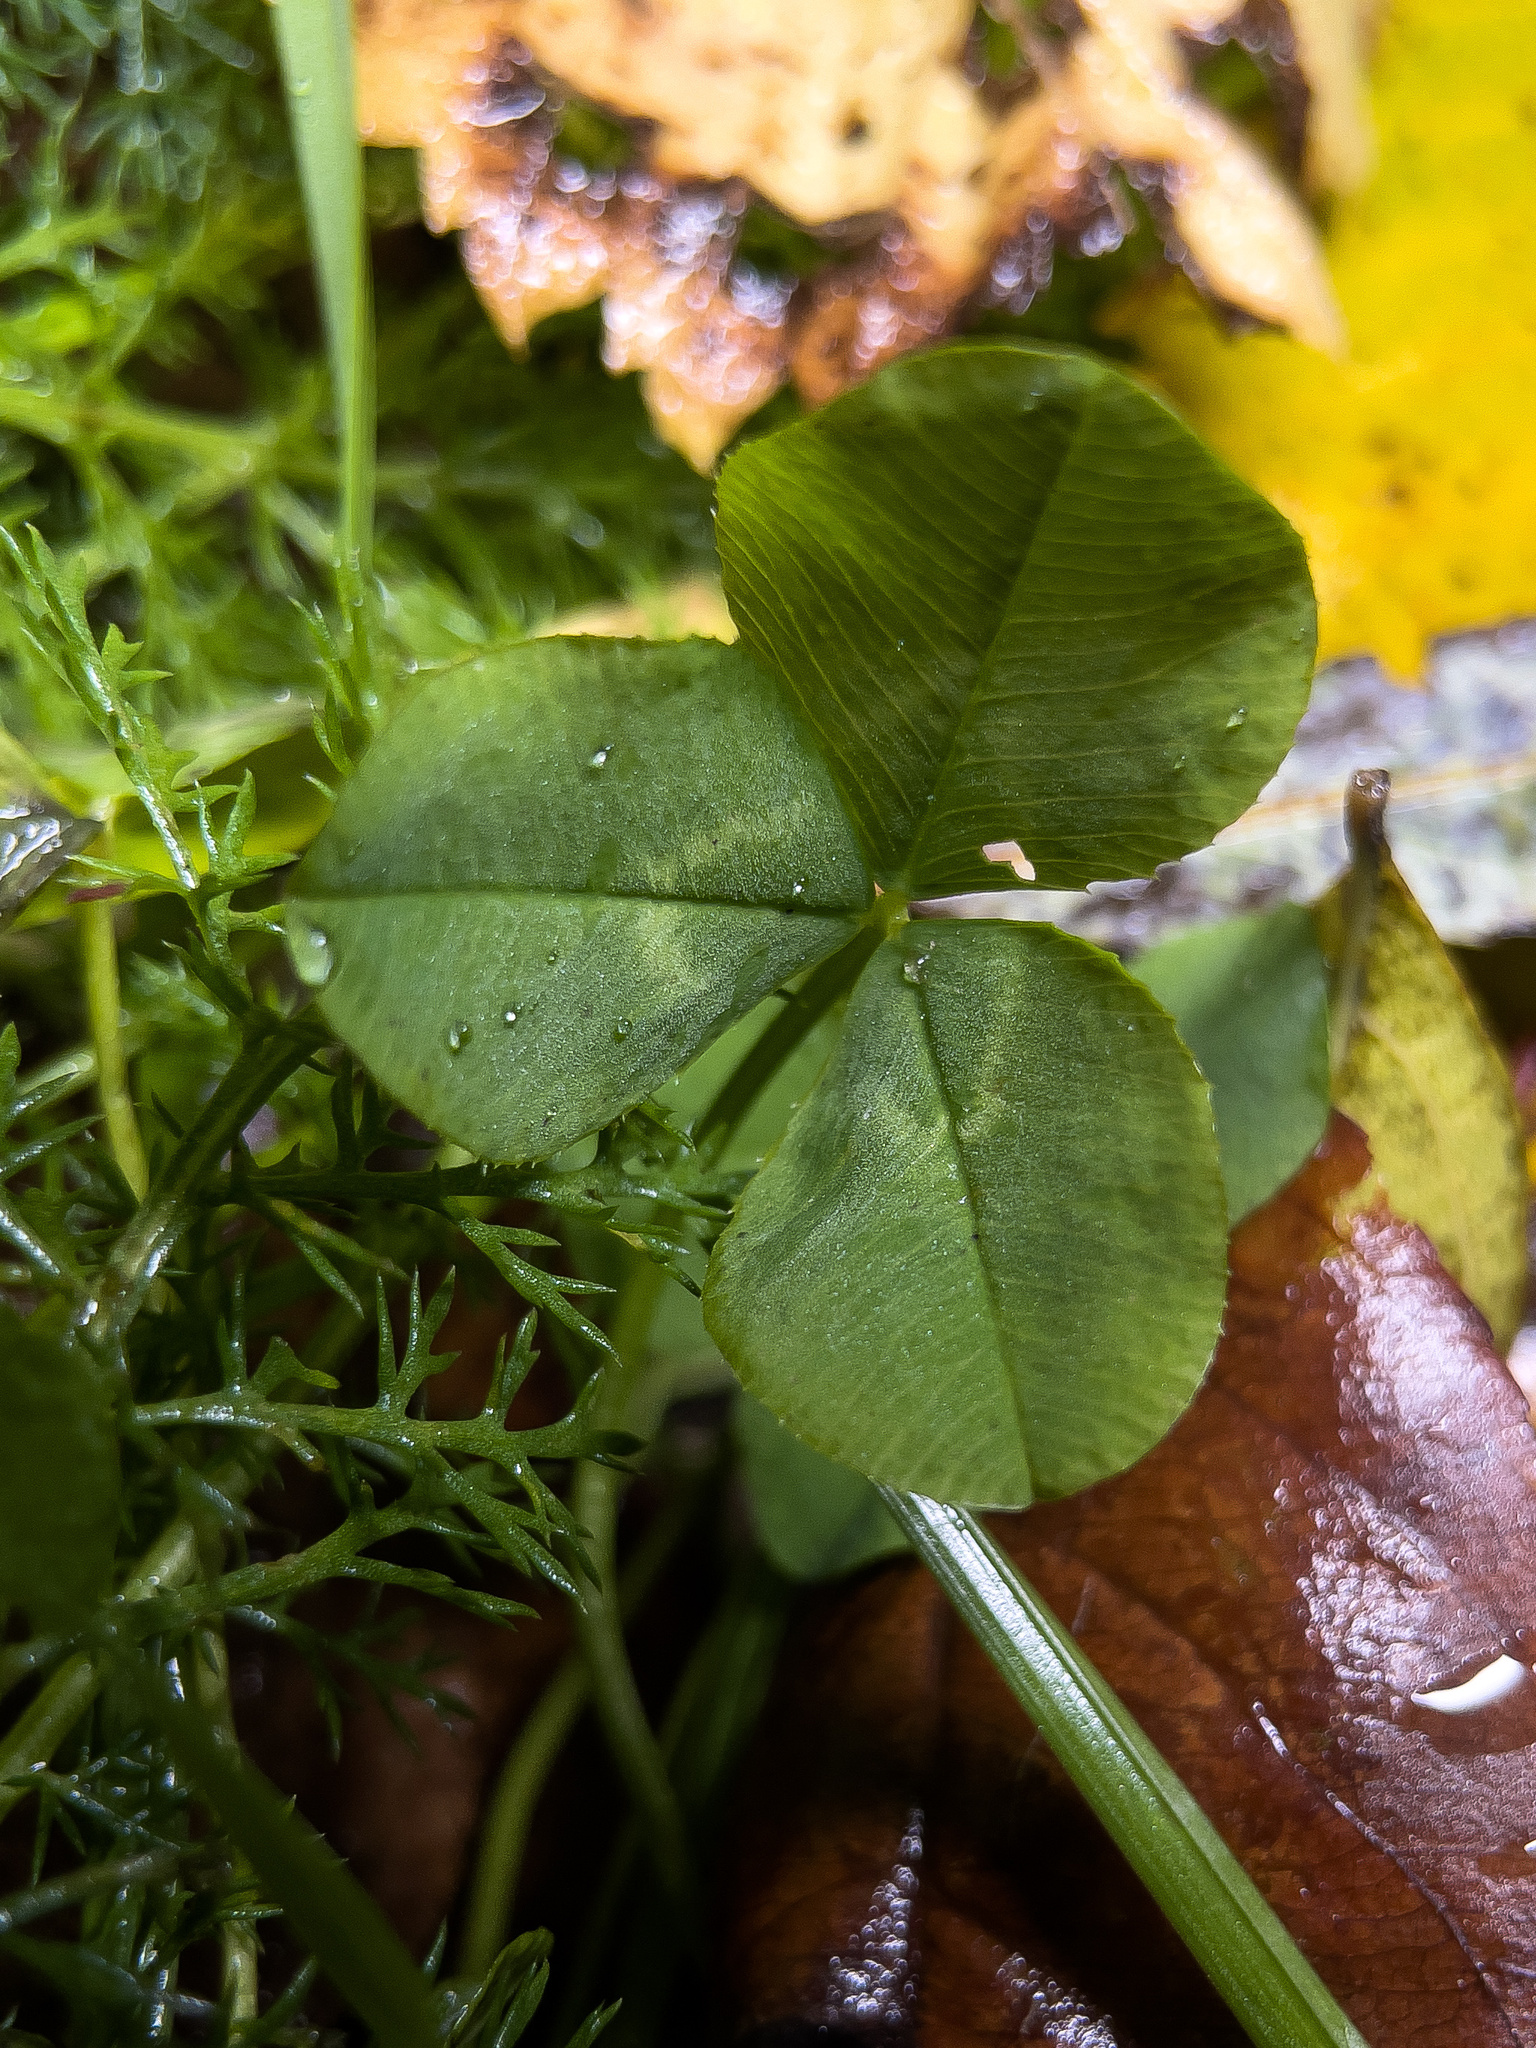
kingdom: Plantae
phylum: Tracheophyta
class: Magnoliopsida
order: Fabales
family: Fabaceae
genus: Trifolium
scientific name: Trifolium repens
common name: White clover
